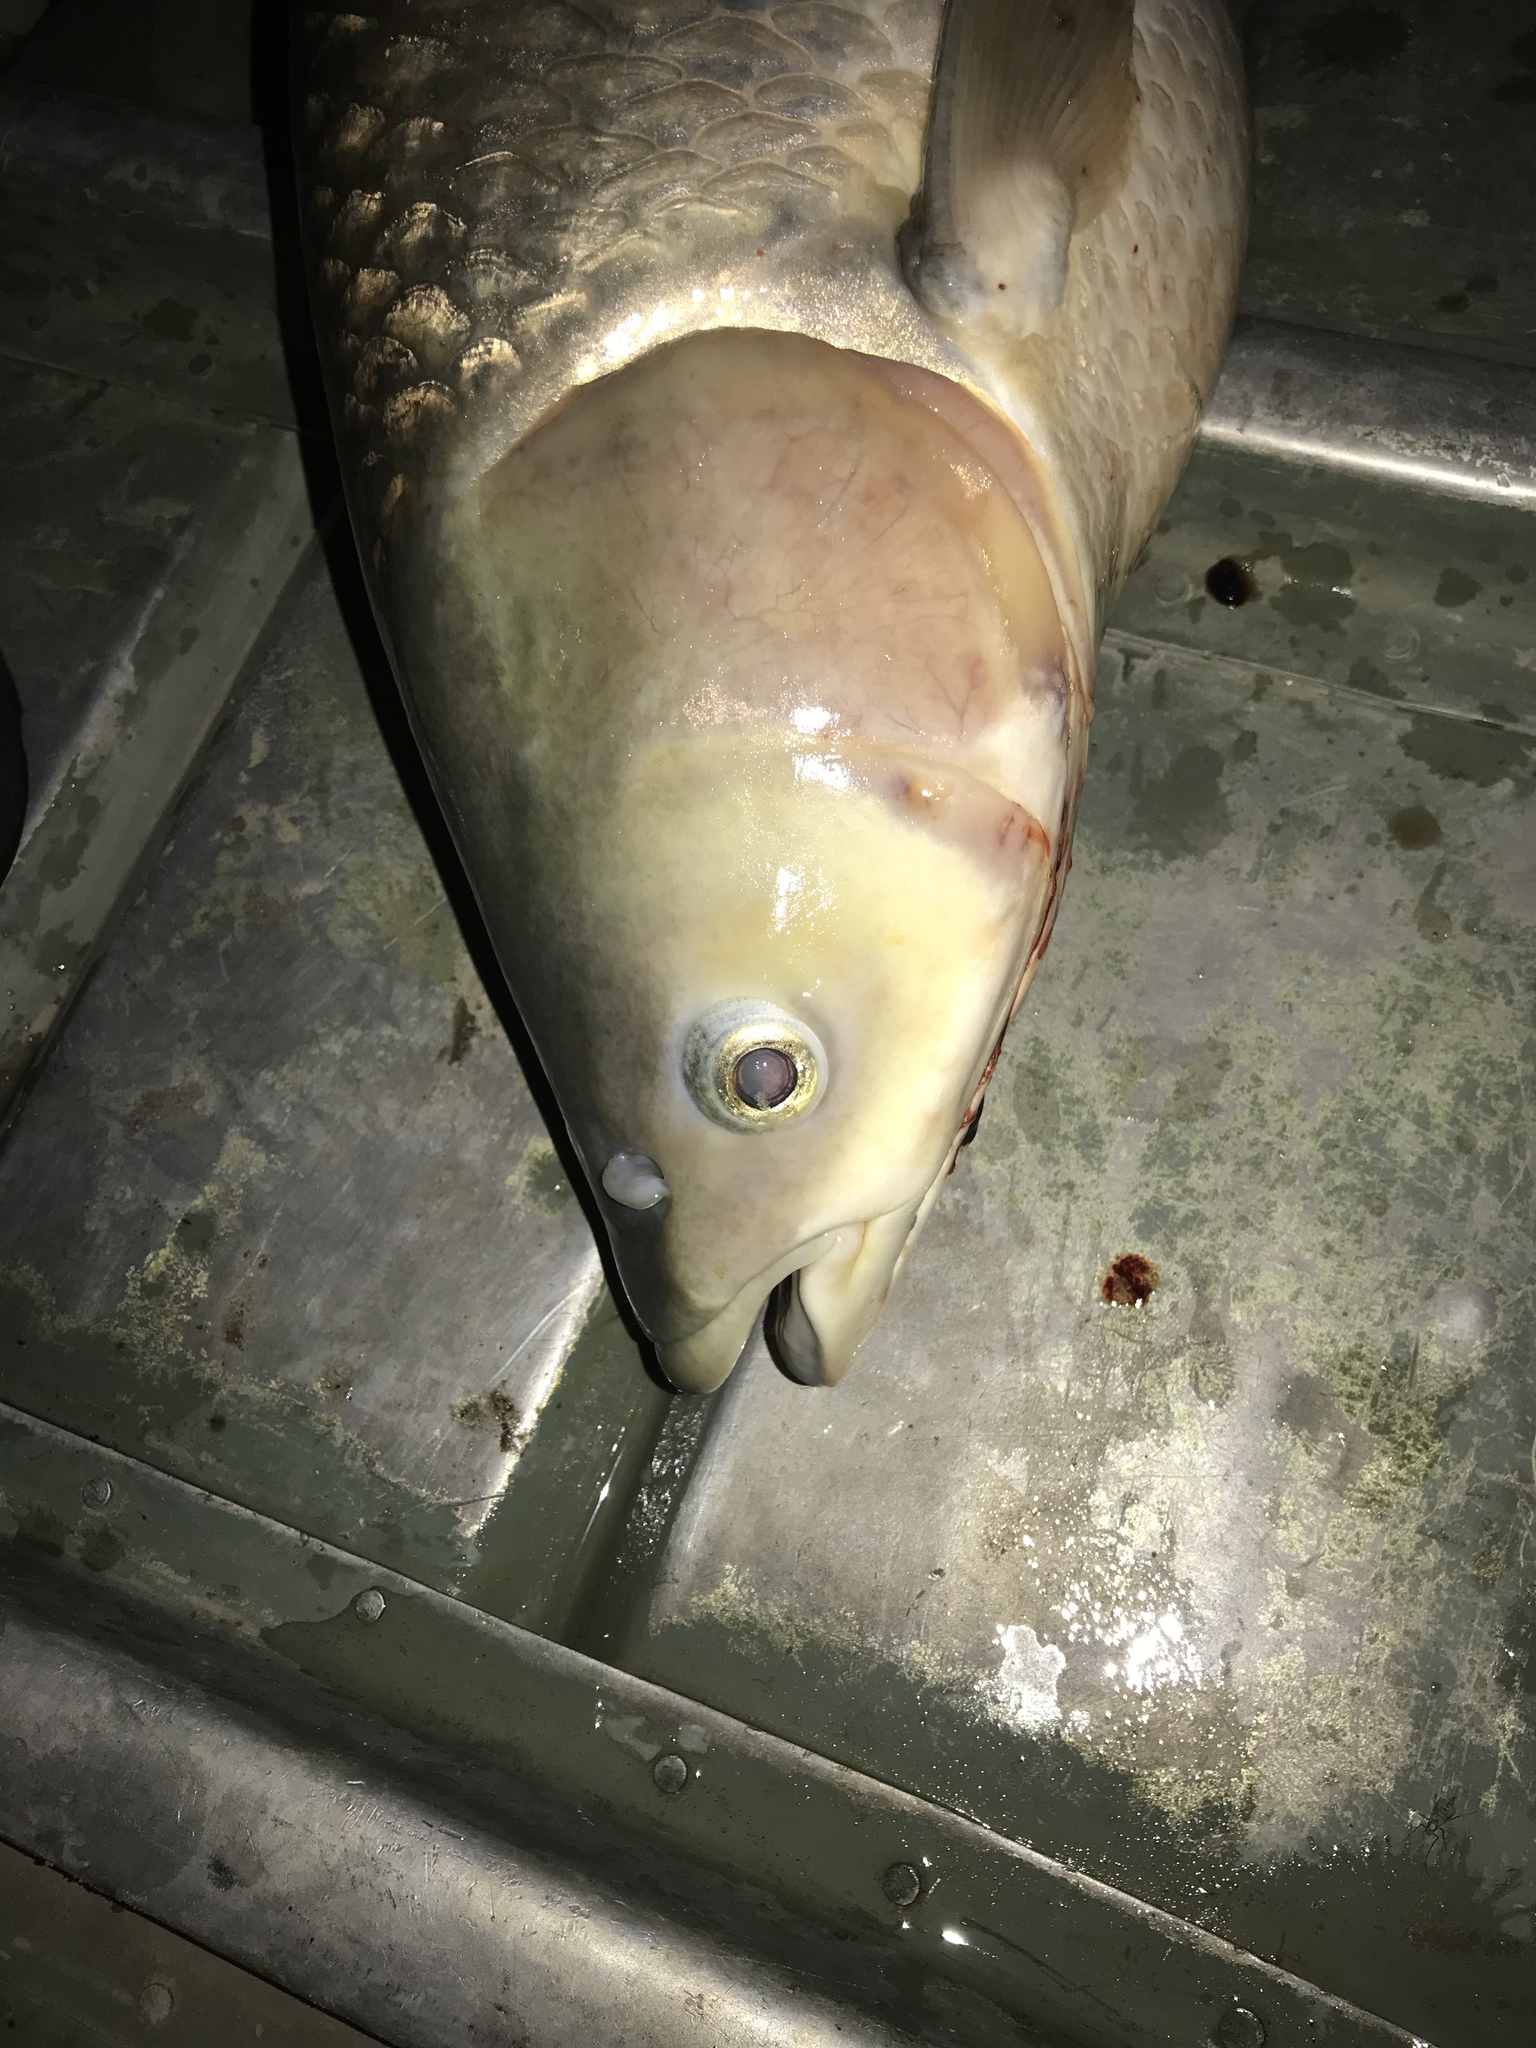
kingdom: Animalia
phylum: Chordata
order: Cypriniformes
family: Cyprinidae
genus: Ctenopharyngodon
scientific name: Ctenopharyngodon idella
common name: Grass carp
